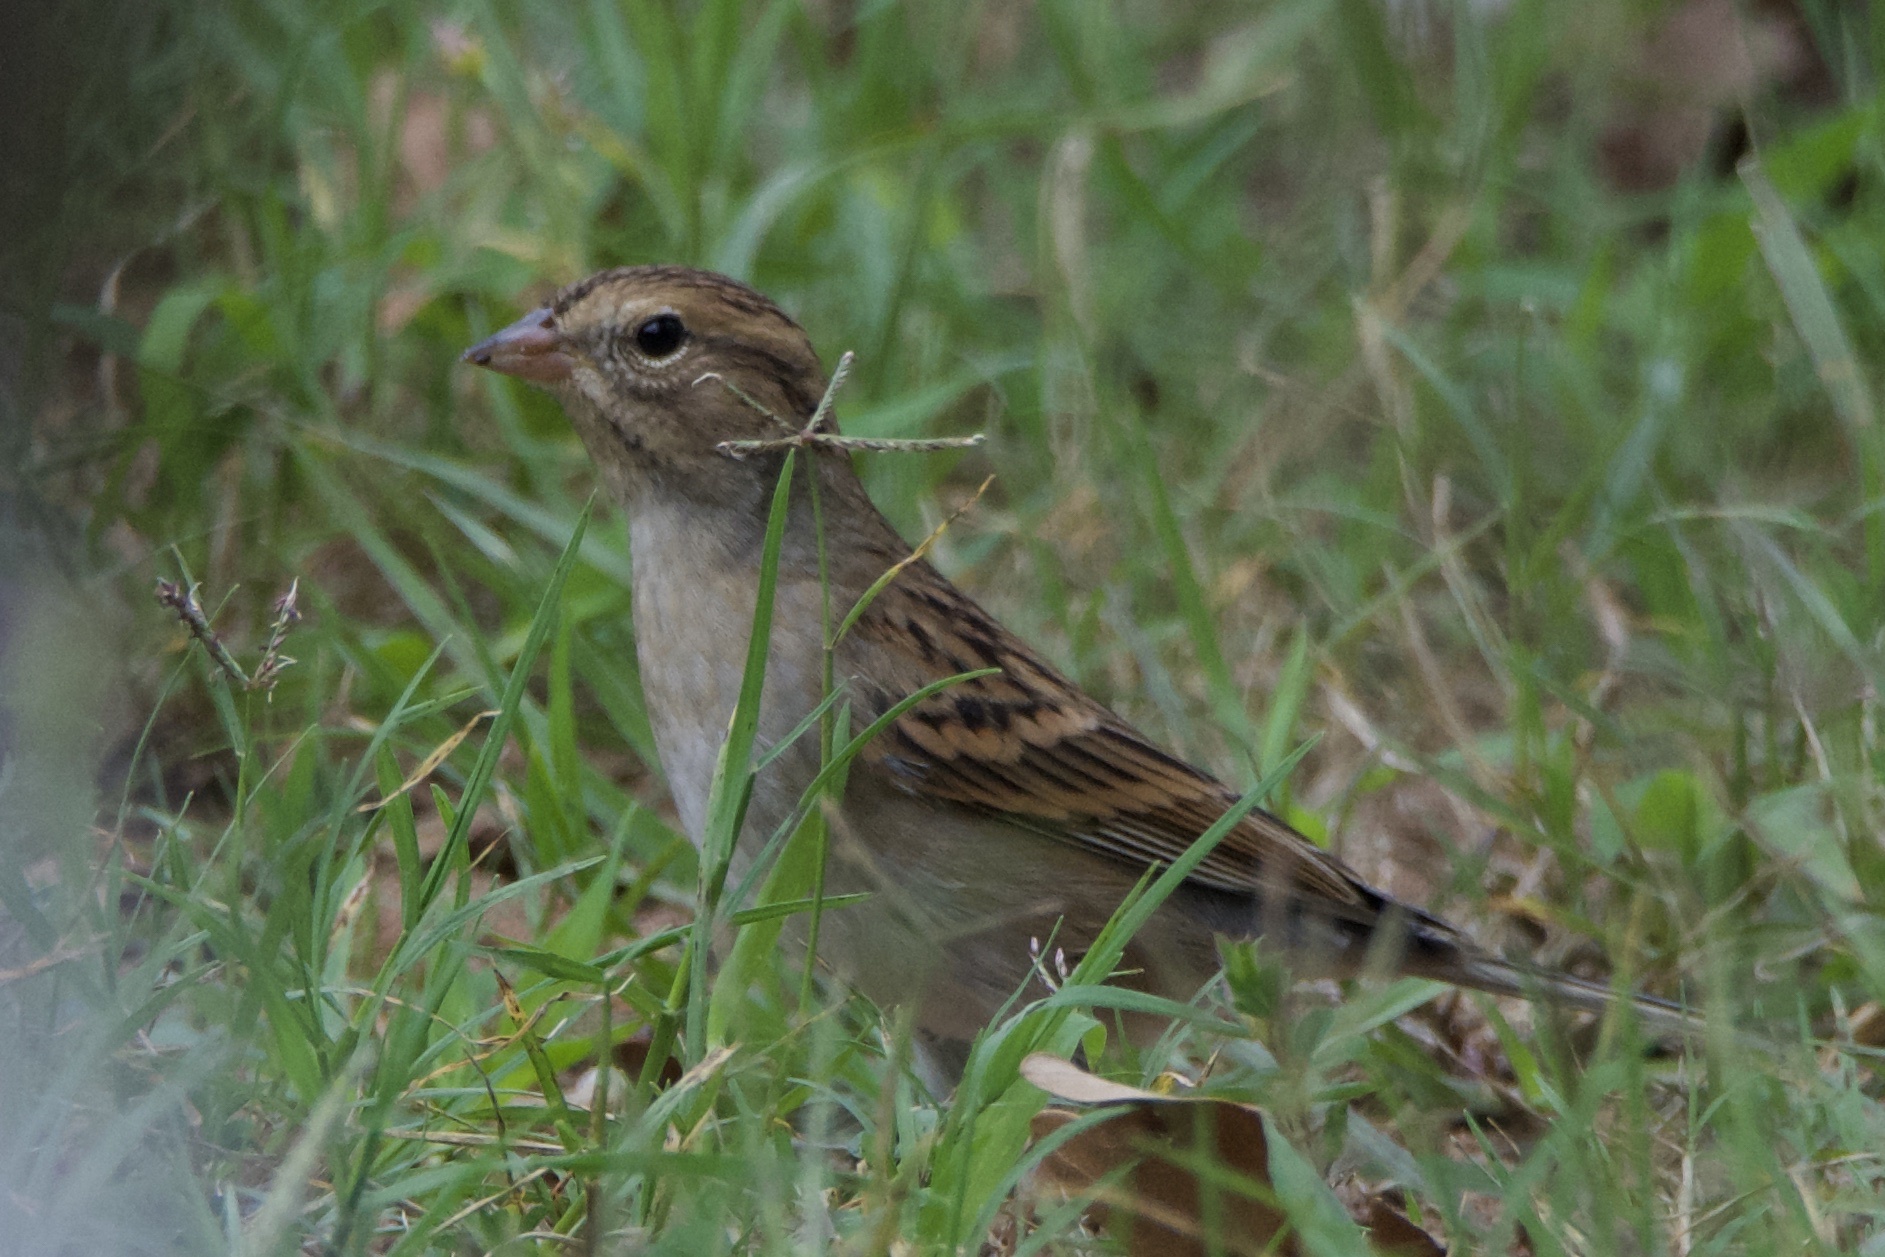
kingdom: Animalia
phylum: Chordata
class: Aves
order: Passeriformes
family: Passerellidae
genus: Spizella
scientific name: Spizella passerina
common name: Chipping sparrow
